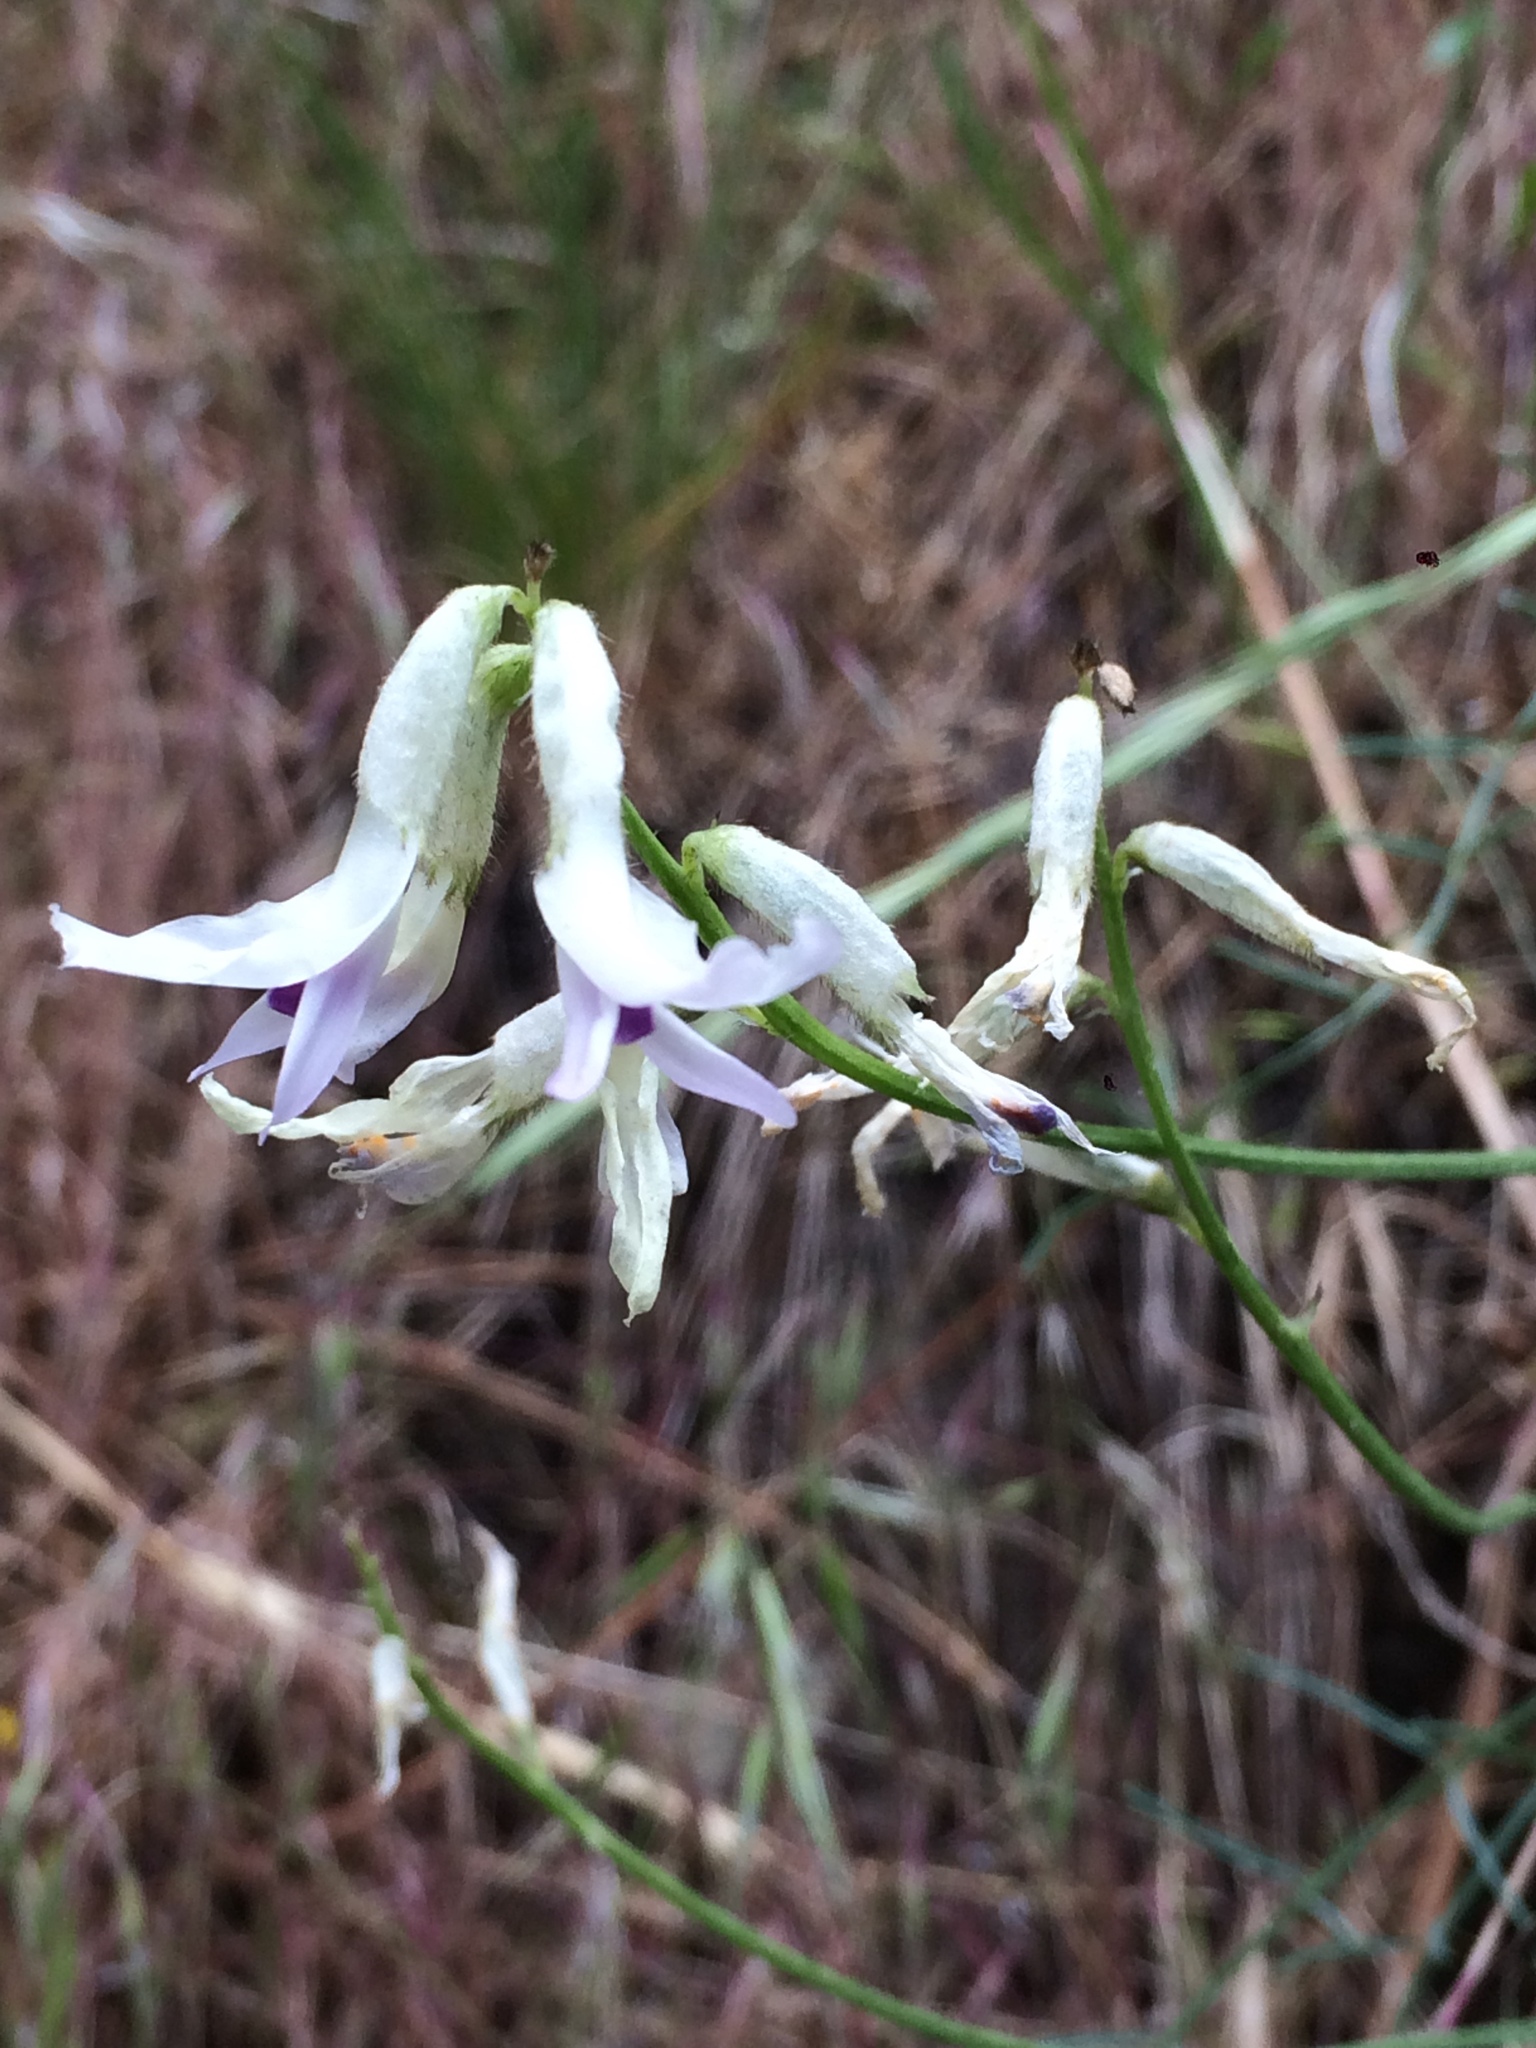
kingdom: Plantae
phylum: Tracheophyta
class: Magnoliopsida
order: Fabales
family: Fabaceae
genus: Astragalus
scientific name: Astragalus conjunctus
